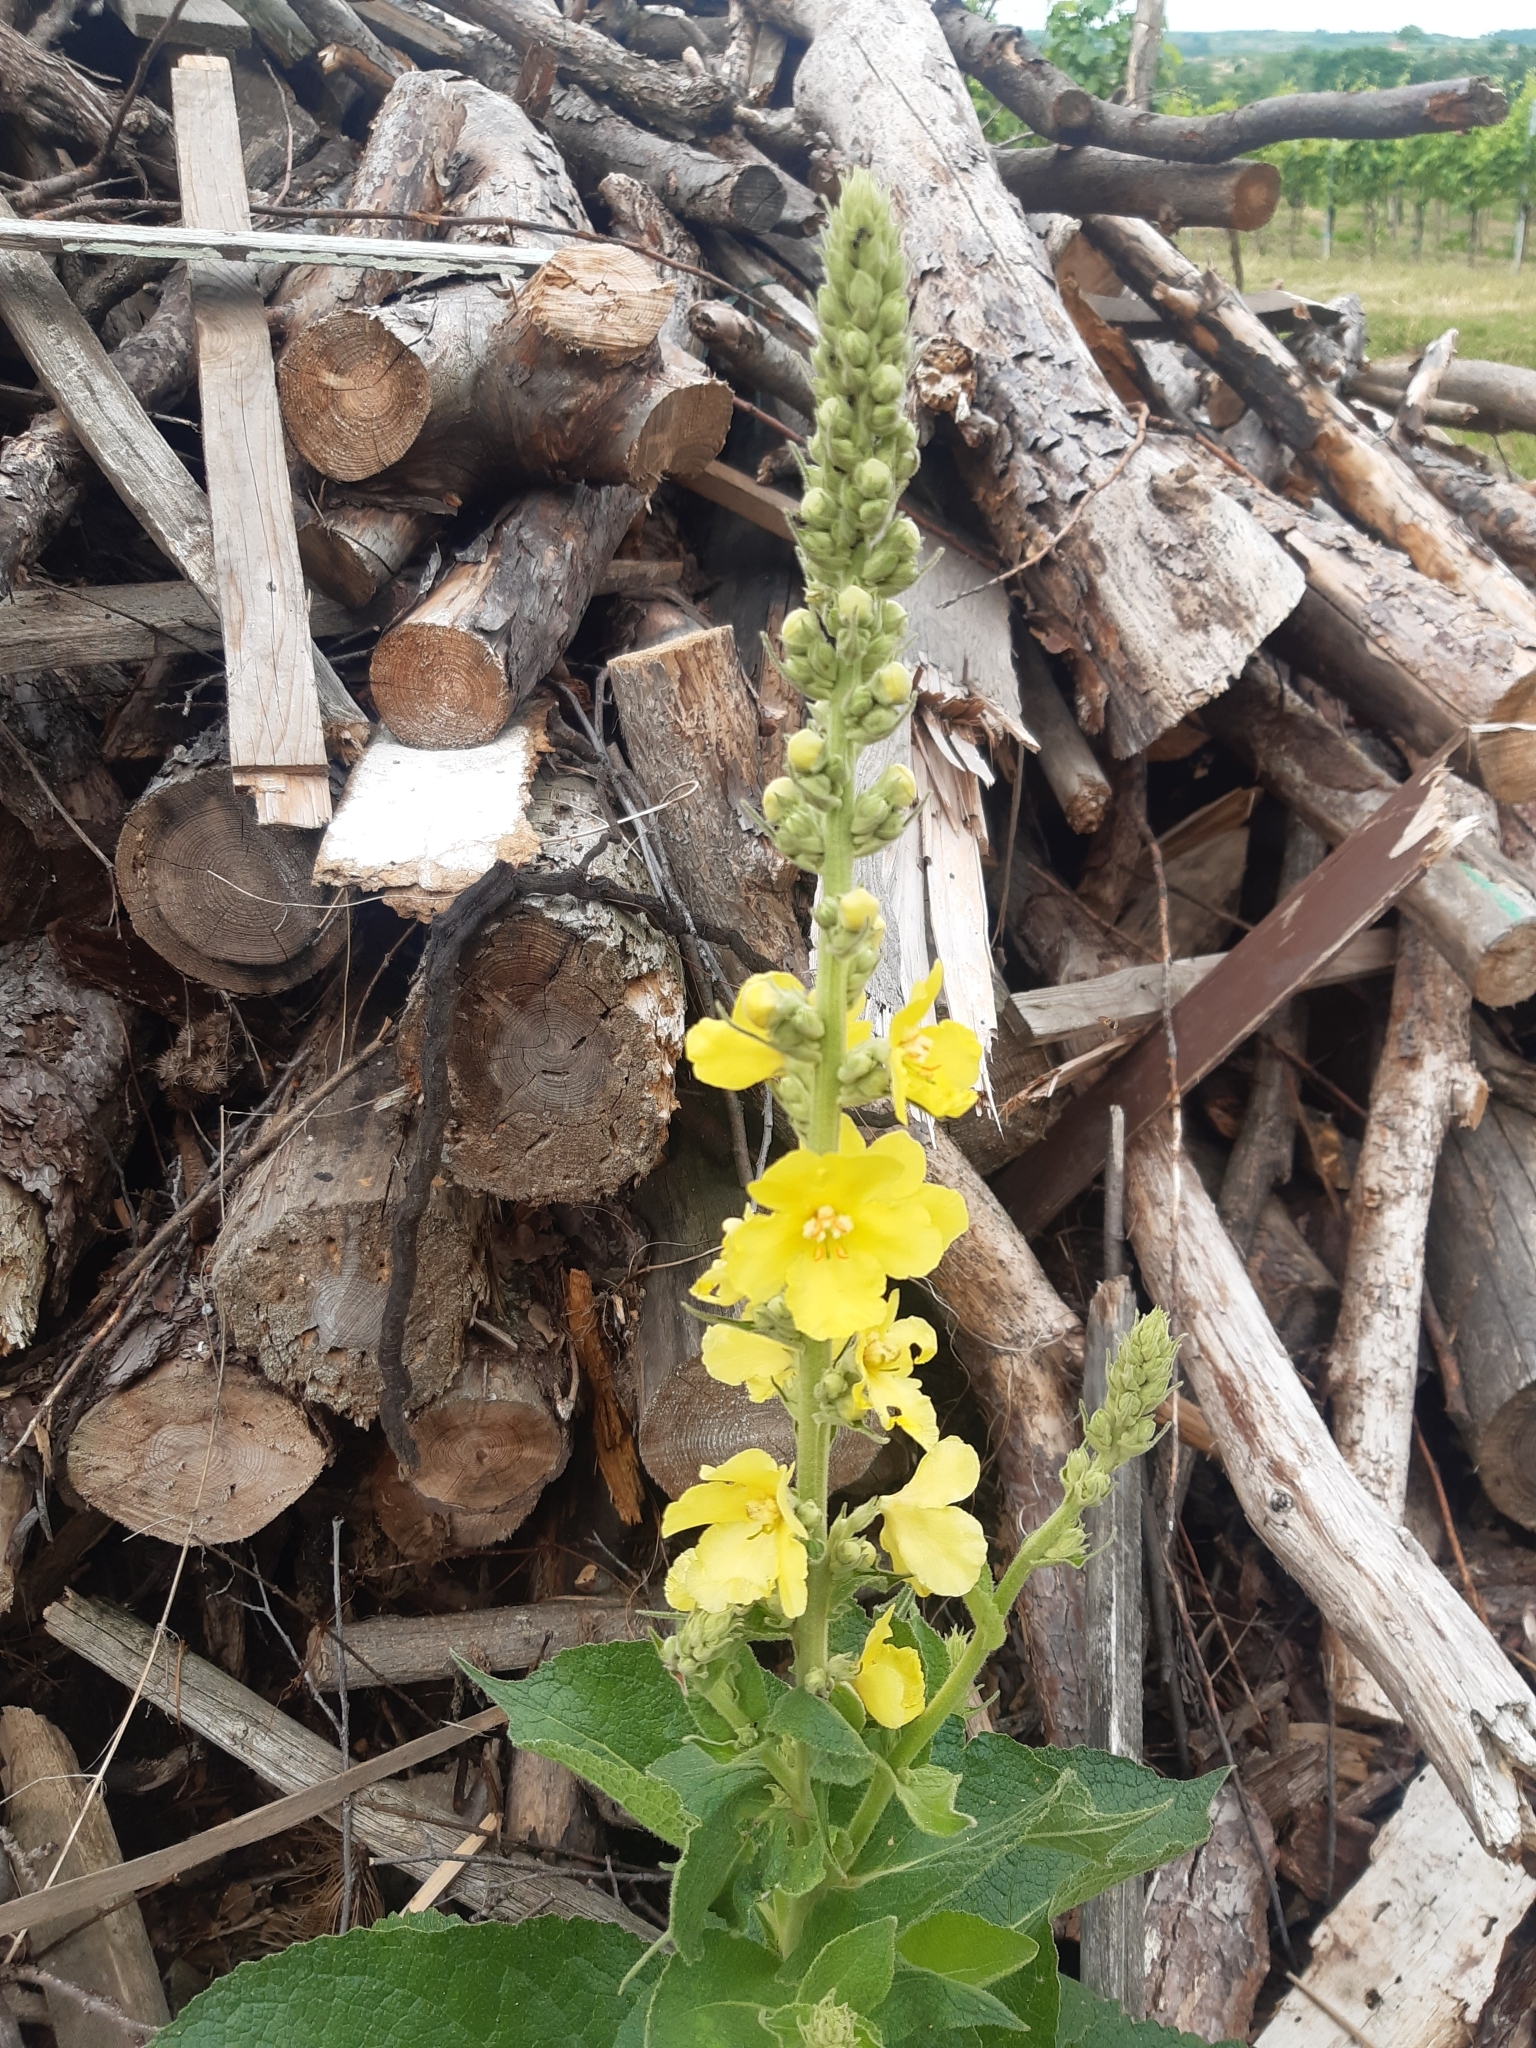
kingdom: Plantae
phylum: Tracheophyta
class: Magnoliopsida
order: Lamiales
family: Scrophulariaceae
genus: Verbascum
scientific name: Verbascum densiflorum
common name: Dense-flowered mullein
